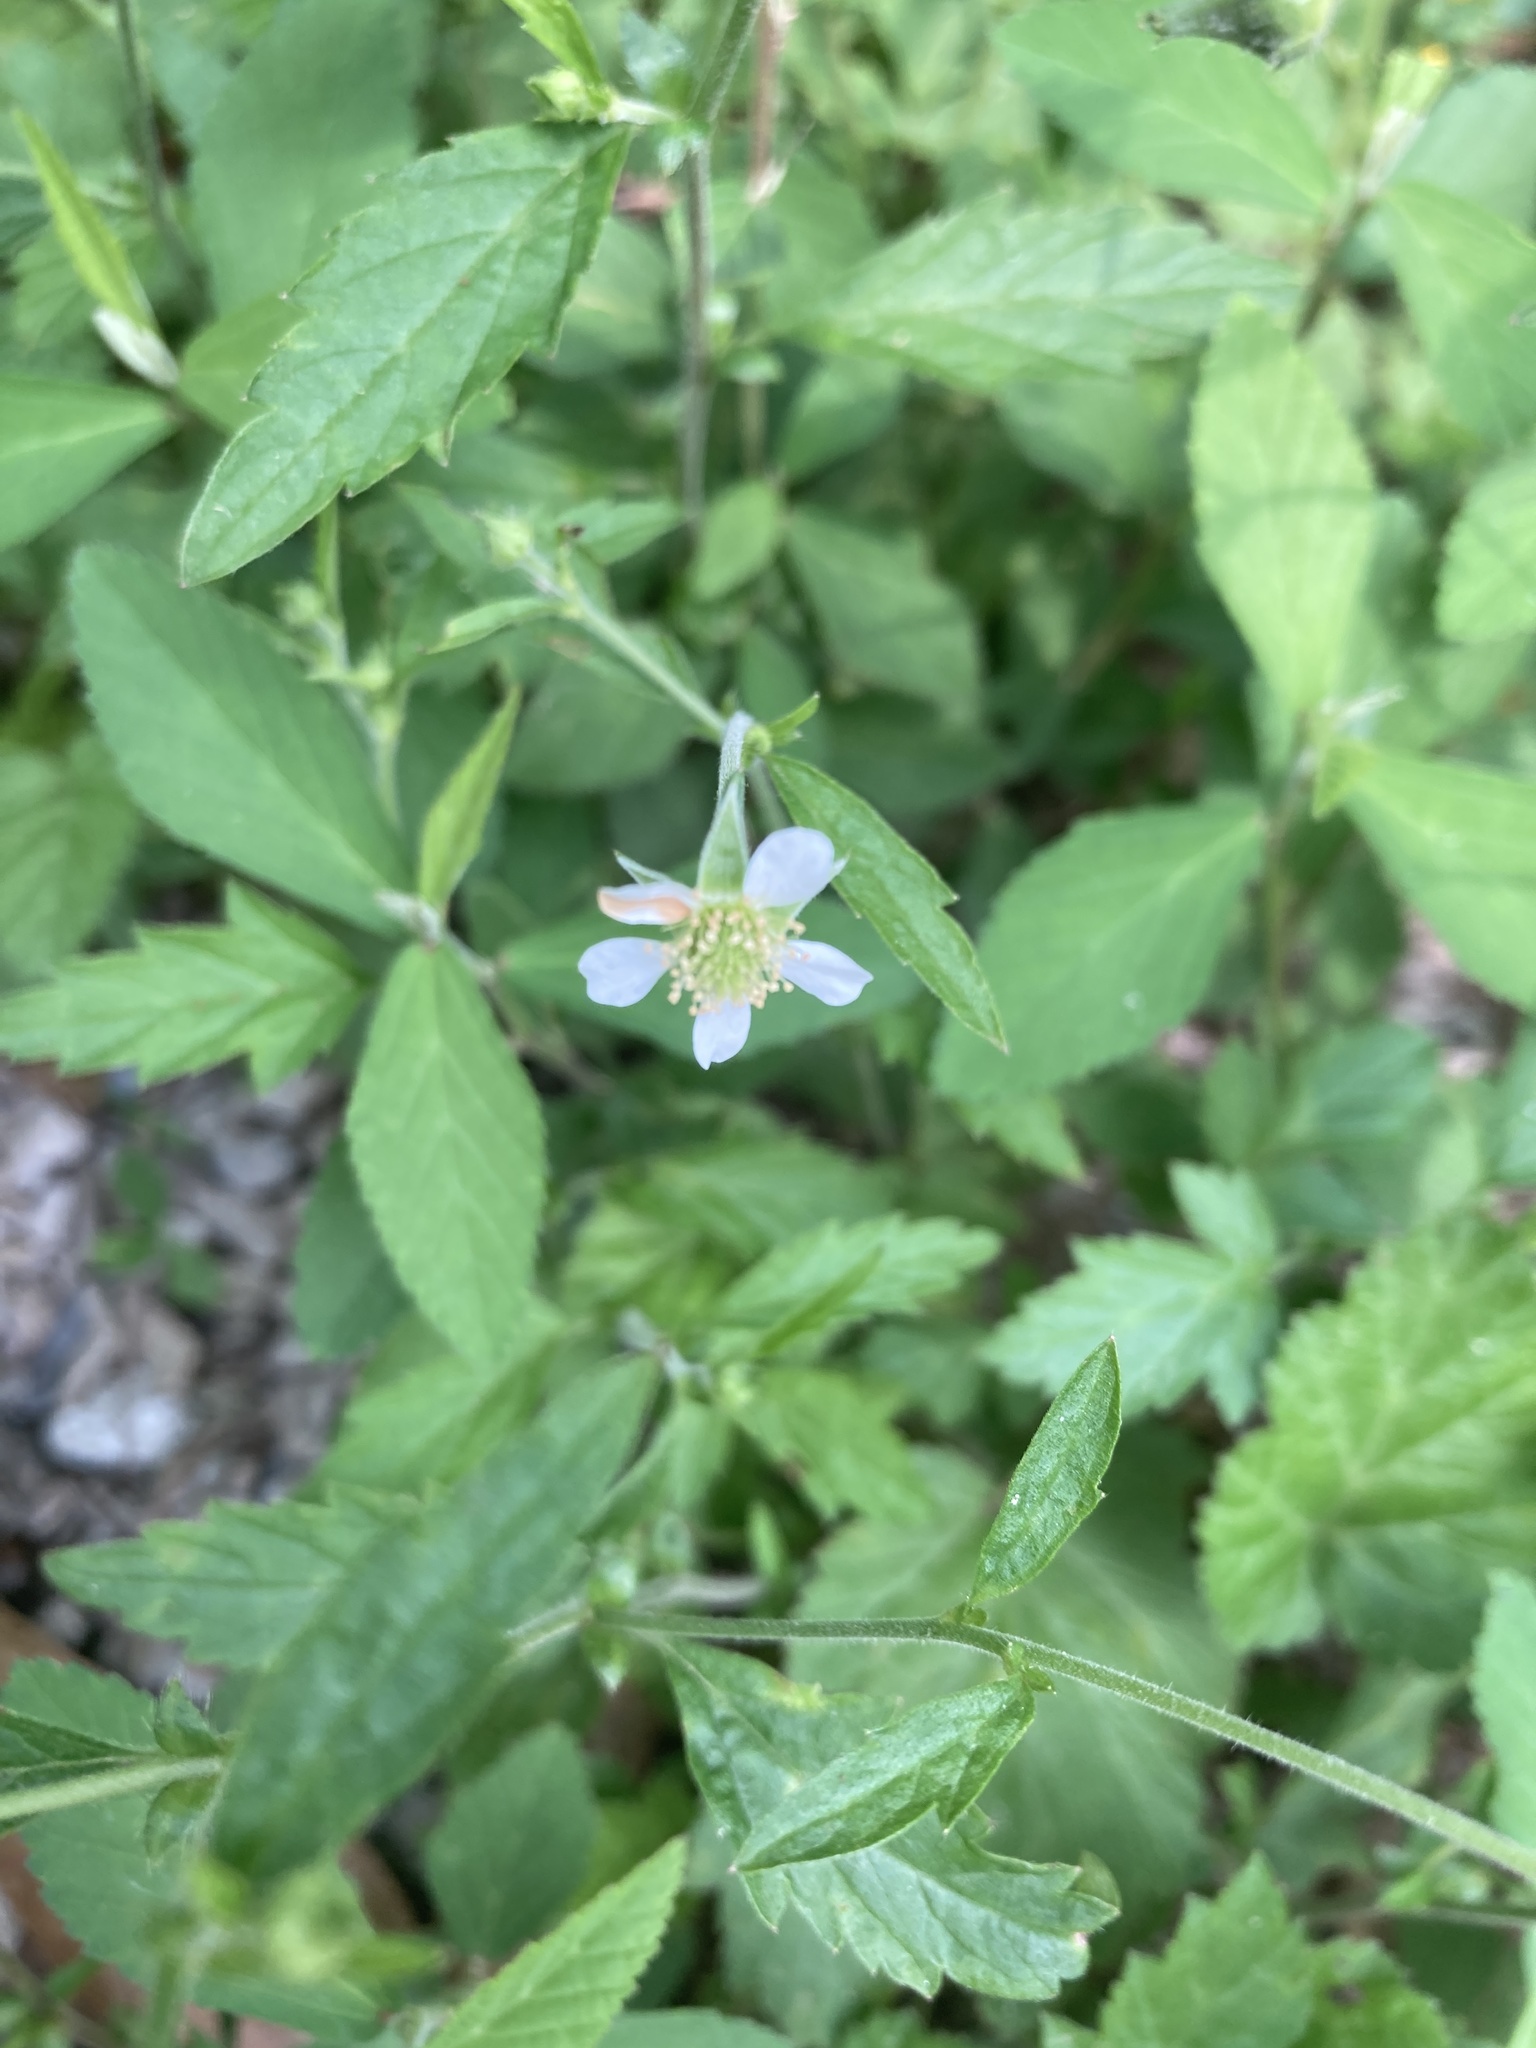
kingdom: Plantae
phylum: Tracheophyta
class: Magnoliopsida
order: Rosales
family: Rosaceae
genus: Geum
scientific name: Geum canadense
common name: White avens
